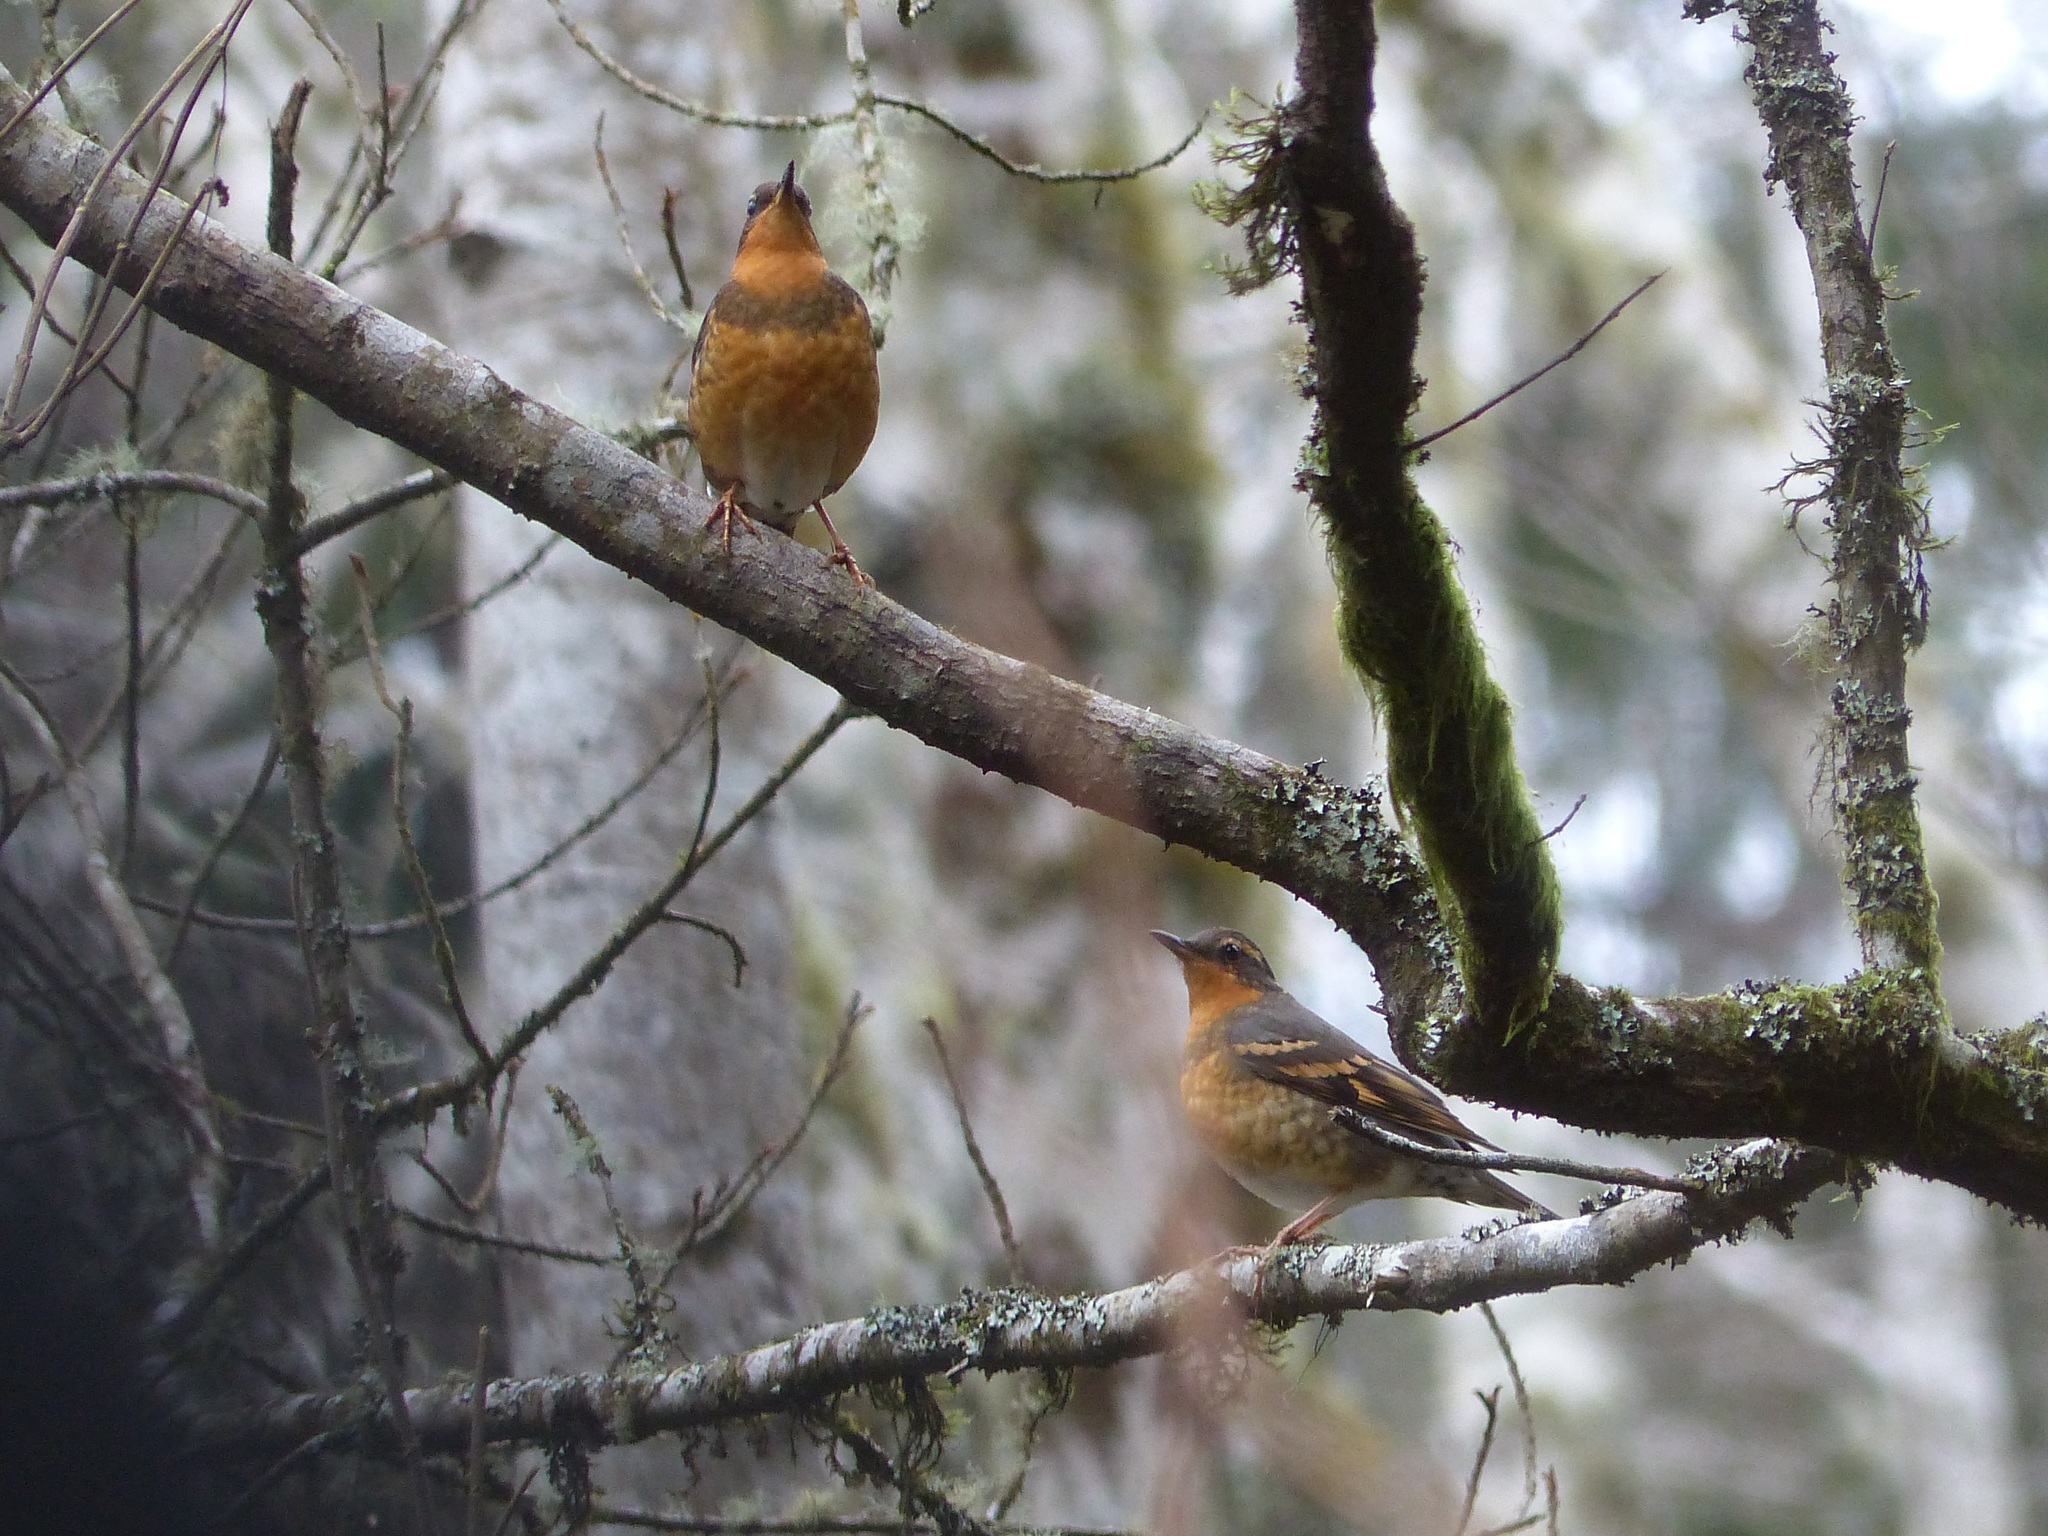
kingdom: Animalia
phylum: Chordata
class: Aves
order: Passeriformes
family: Turdidae
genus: Ixoreus
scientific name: Ixoreus naevius
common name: Varied thrush
